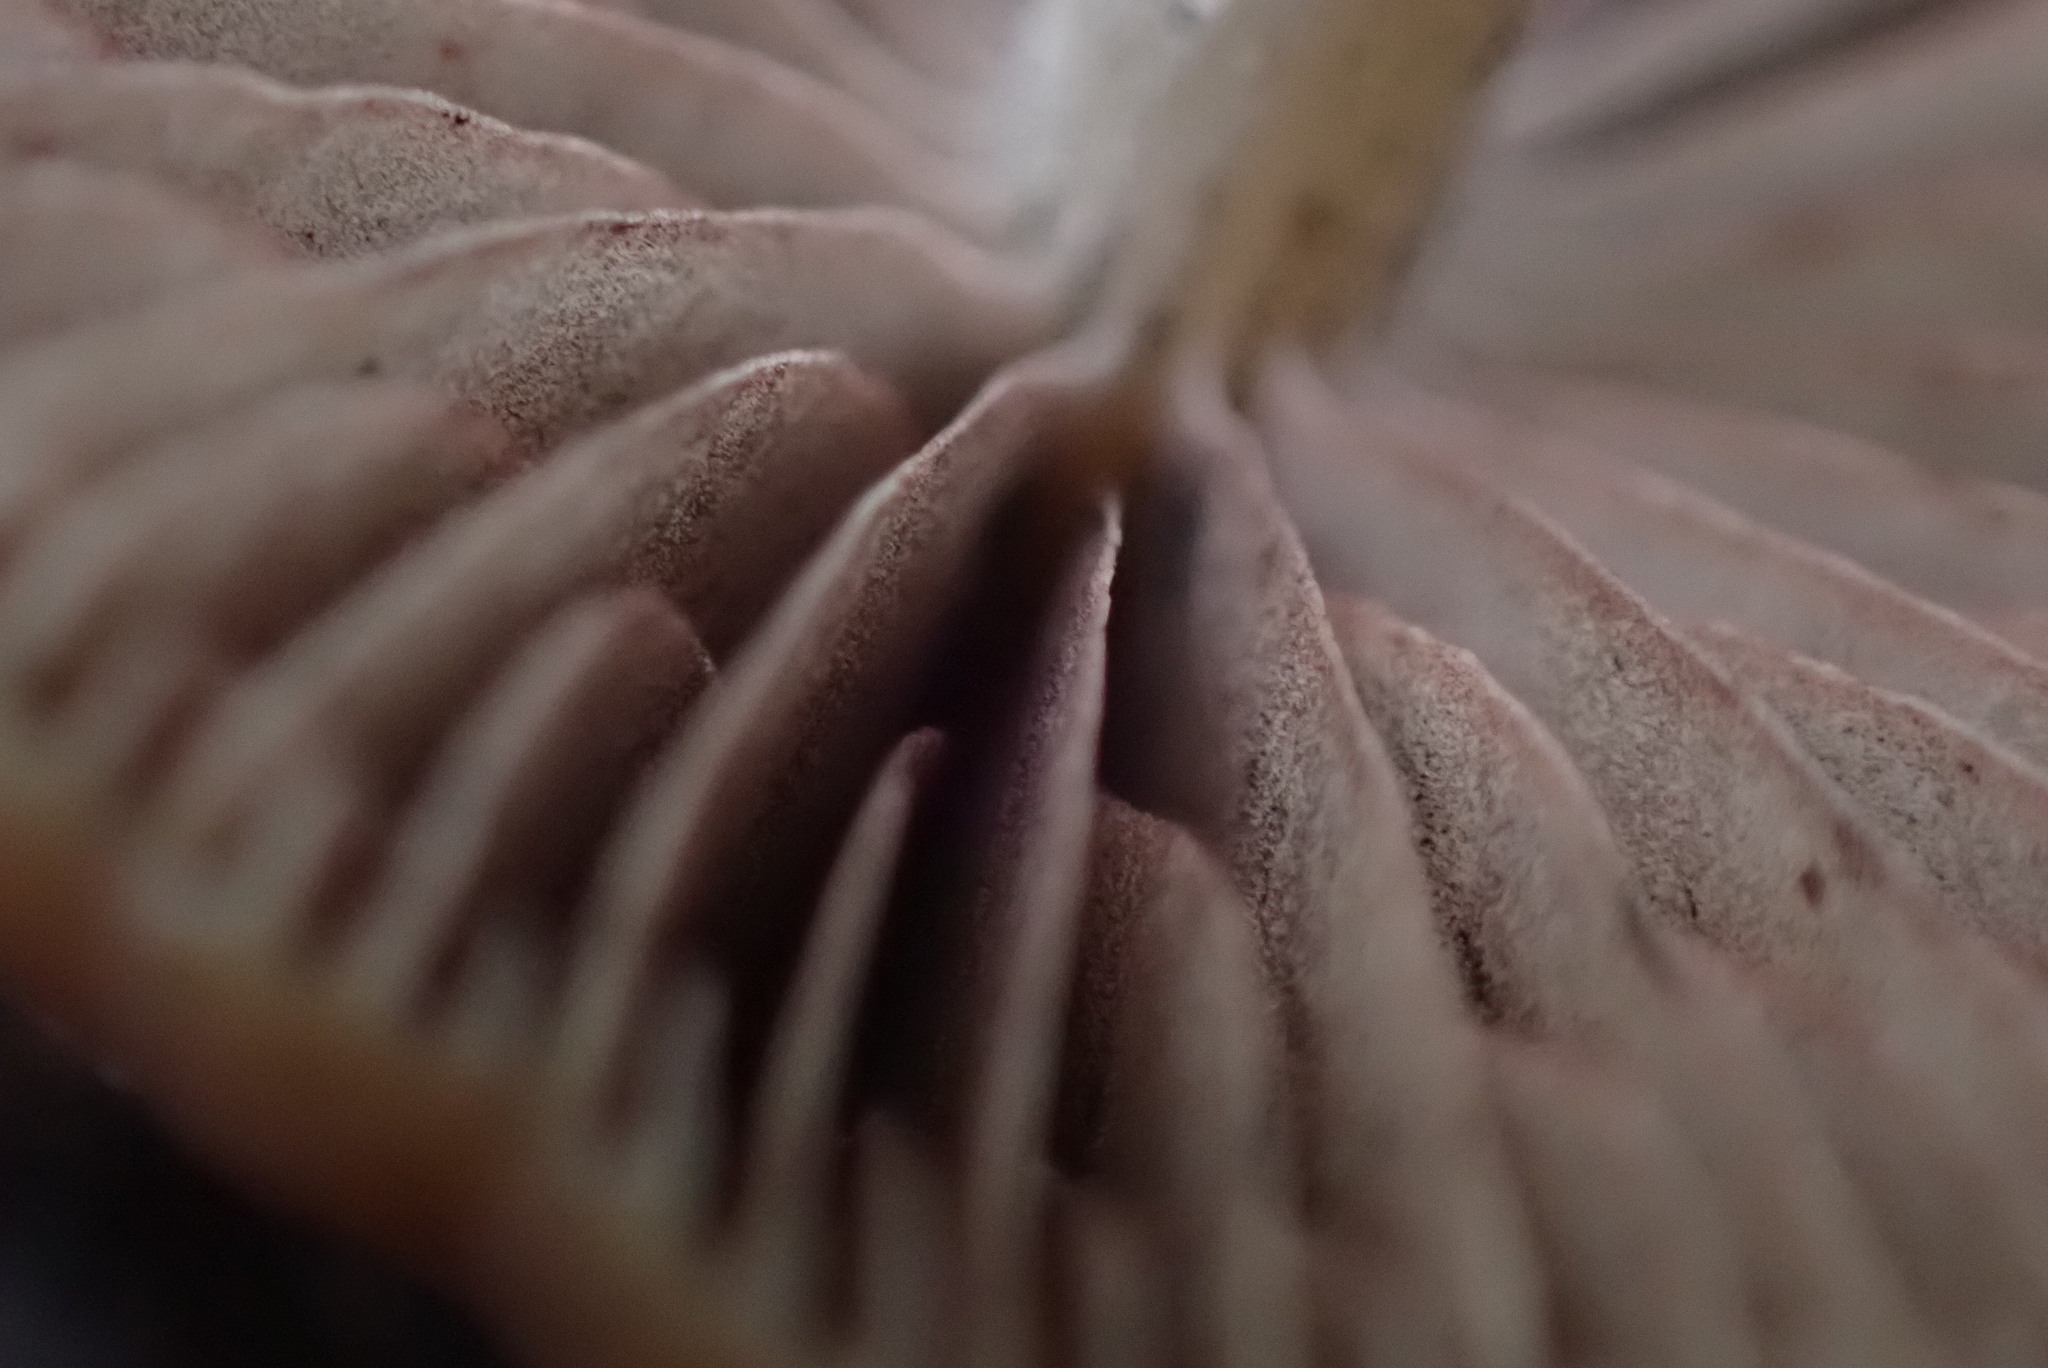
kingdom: Fungi
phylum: Basidiomycota
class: Agaricomycetes
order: Agaricales
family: Psathyrellaceae
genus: Psathyrella
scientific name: Psathyrella corrugis
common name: Red edge brittlestem
